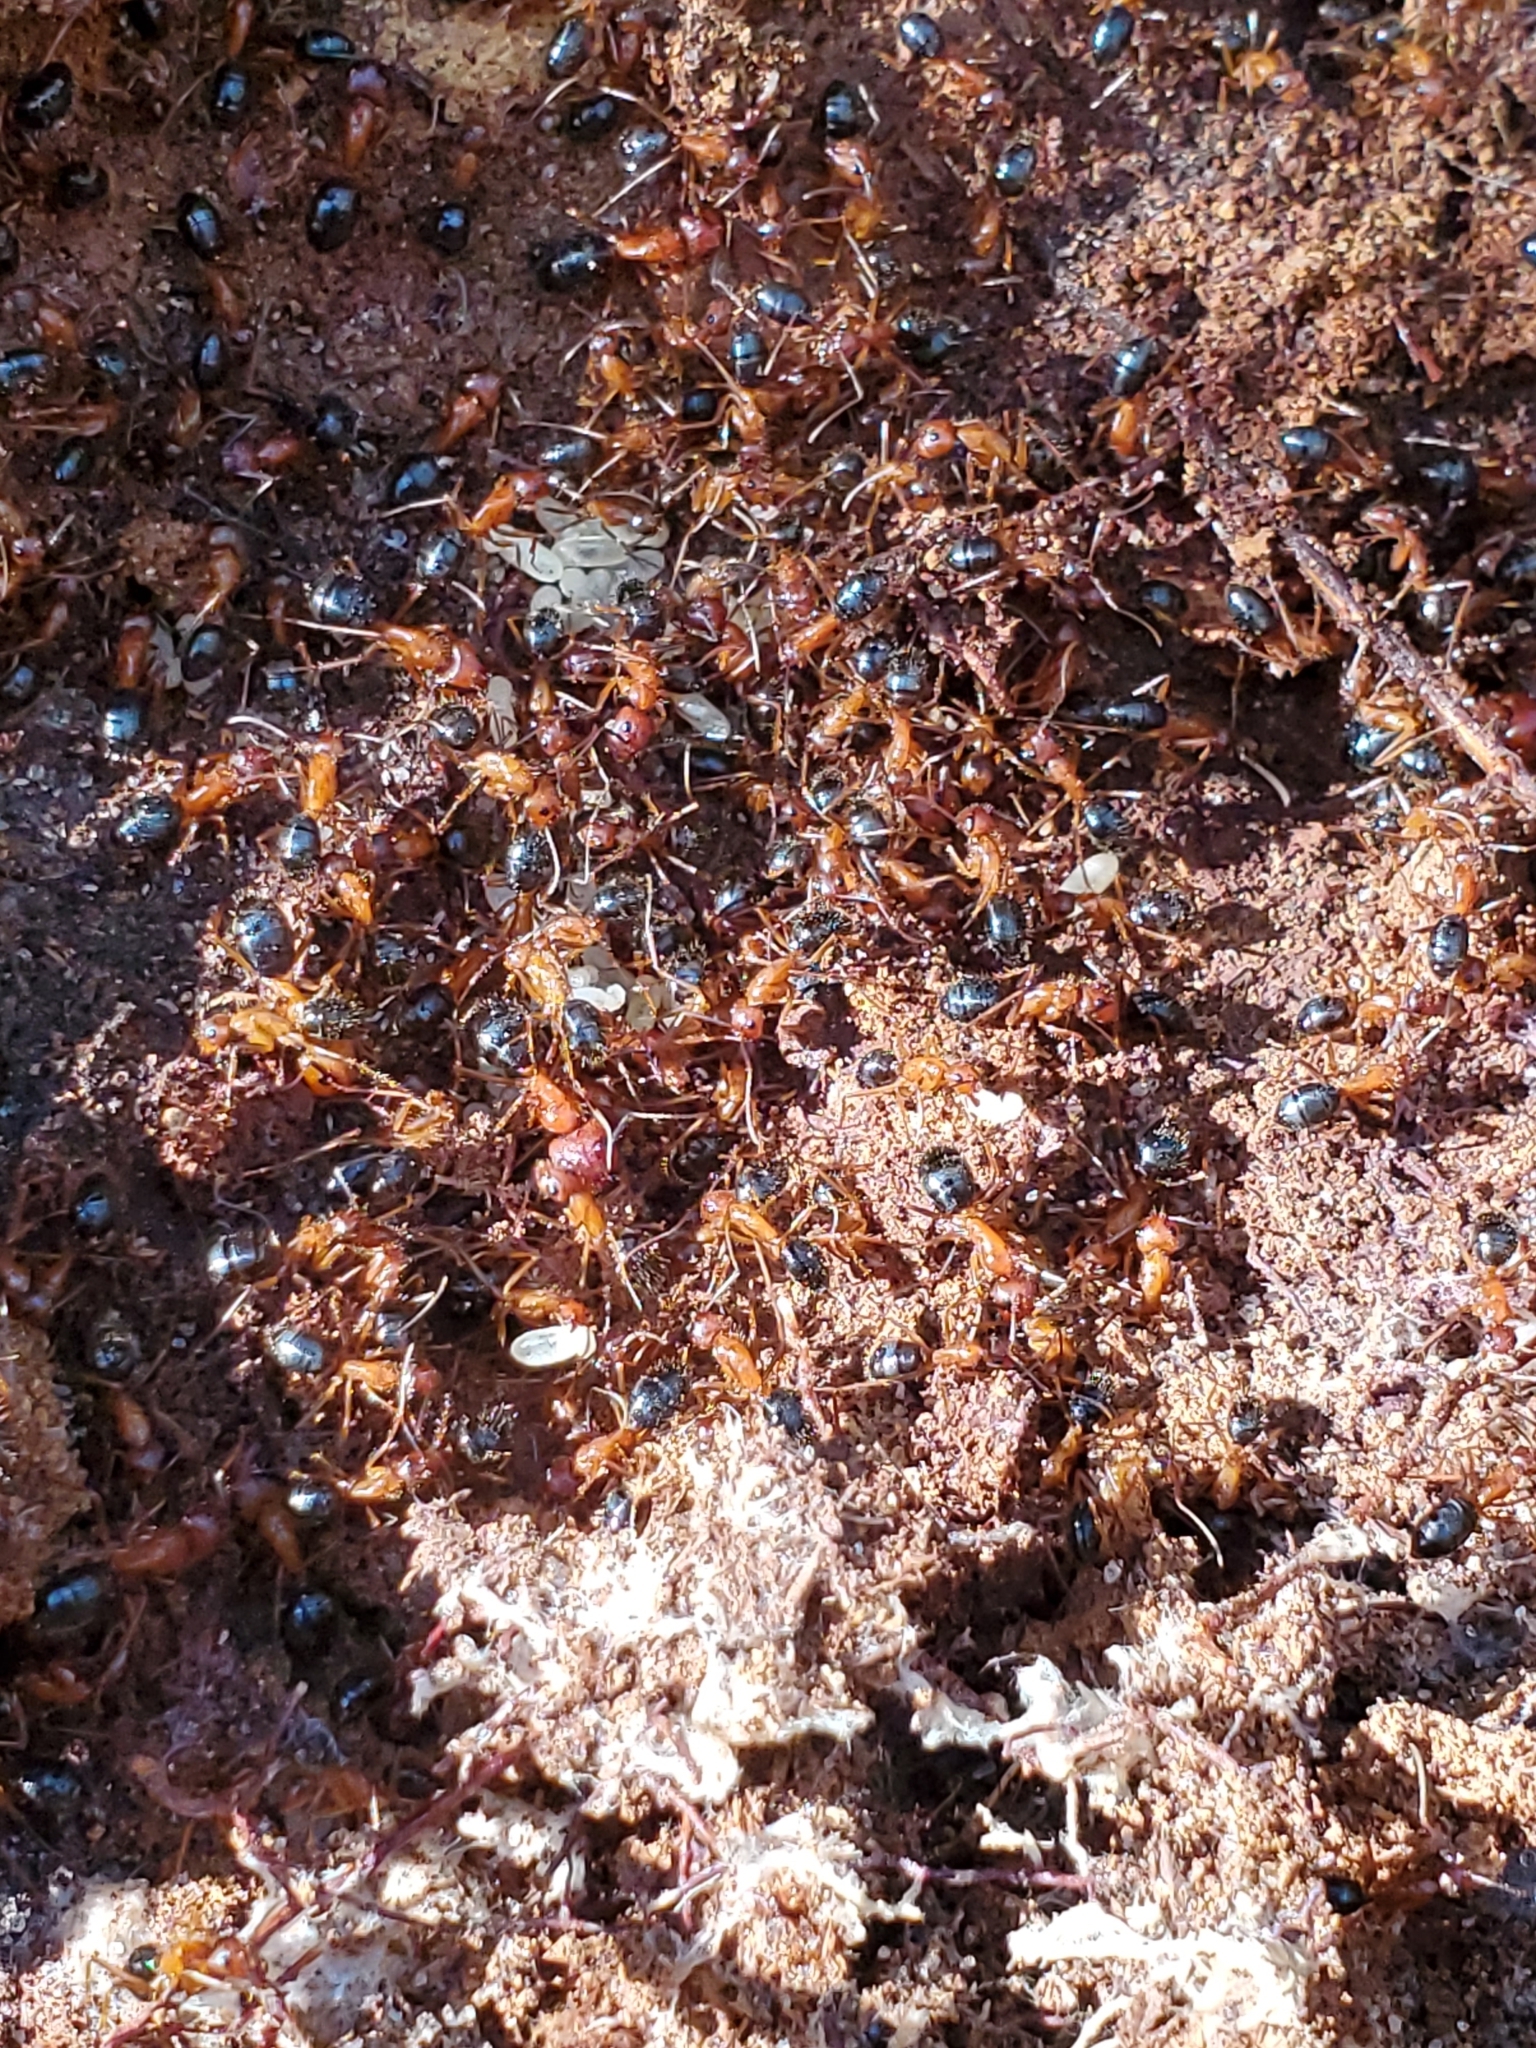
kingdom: Animalia
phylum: Arthropoda
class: Insecta
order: Hymenoptera
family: Formicidae
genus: Camponotus
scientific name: Camponotus floridanus
